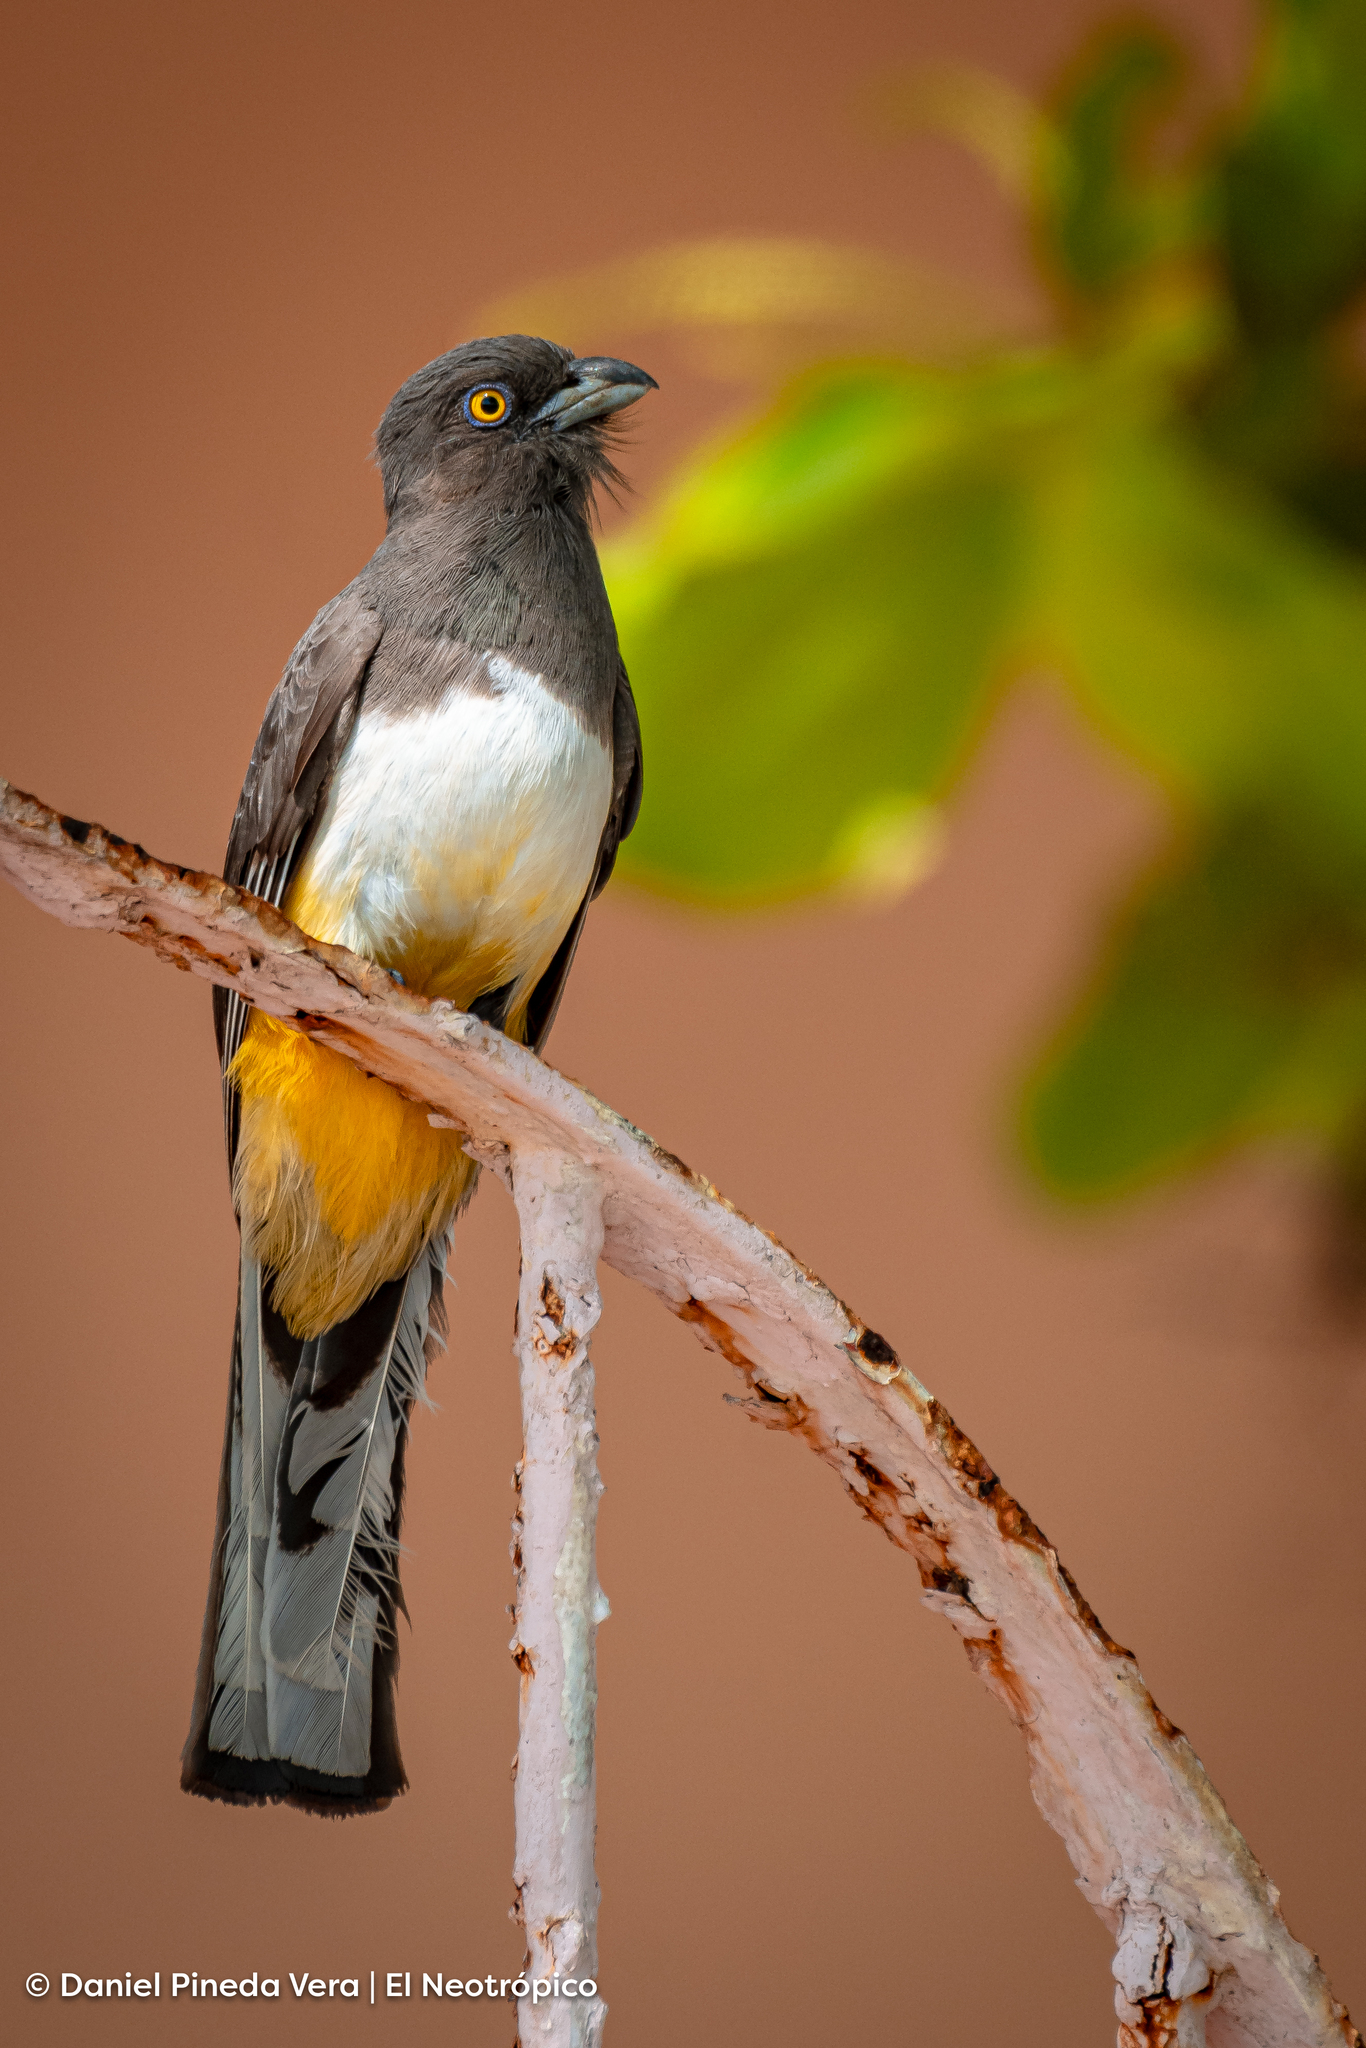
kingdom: Animalia
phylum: Chordata
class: Aves
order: Trogoniformes
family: Trogonidae
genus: Trogon
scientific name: Trogon citreolus
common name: Citreoline trogon
